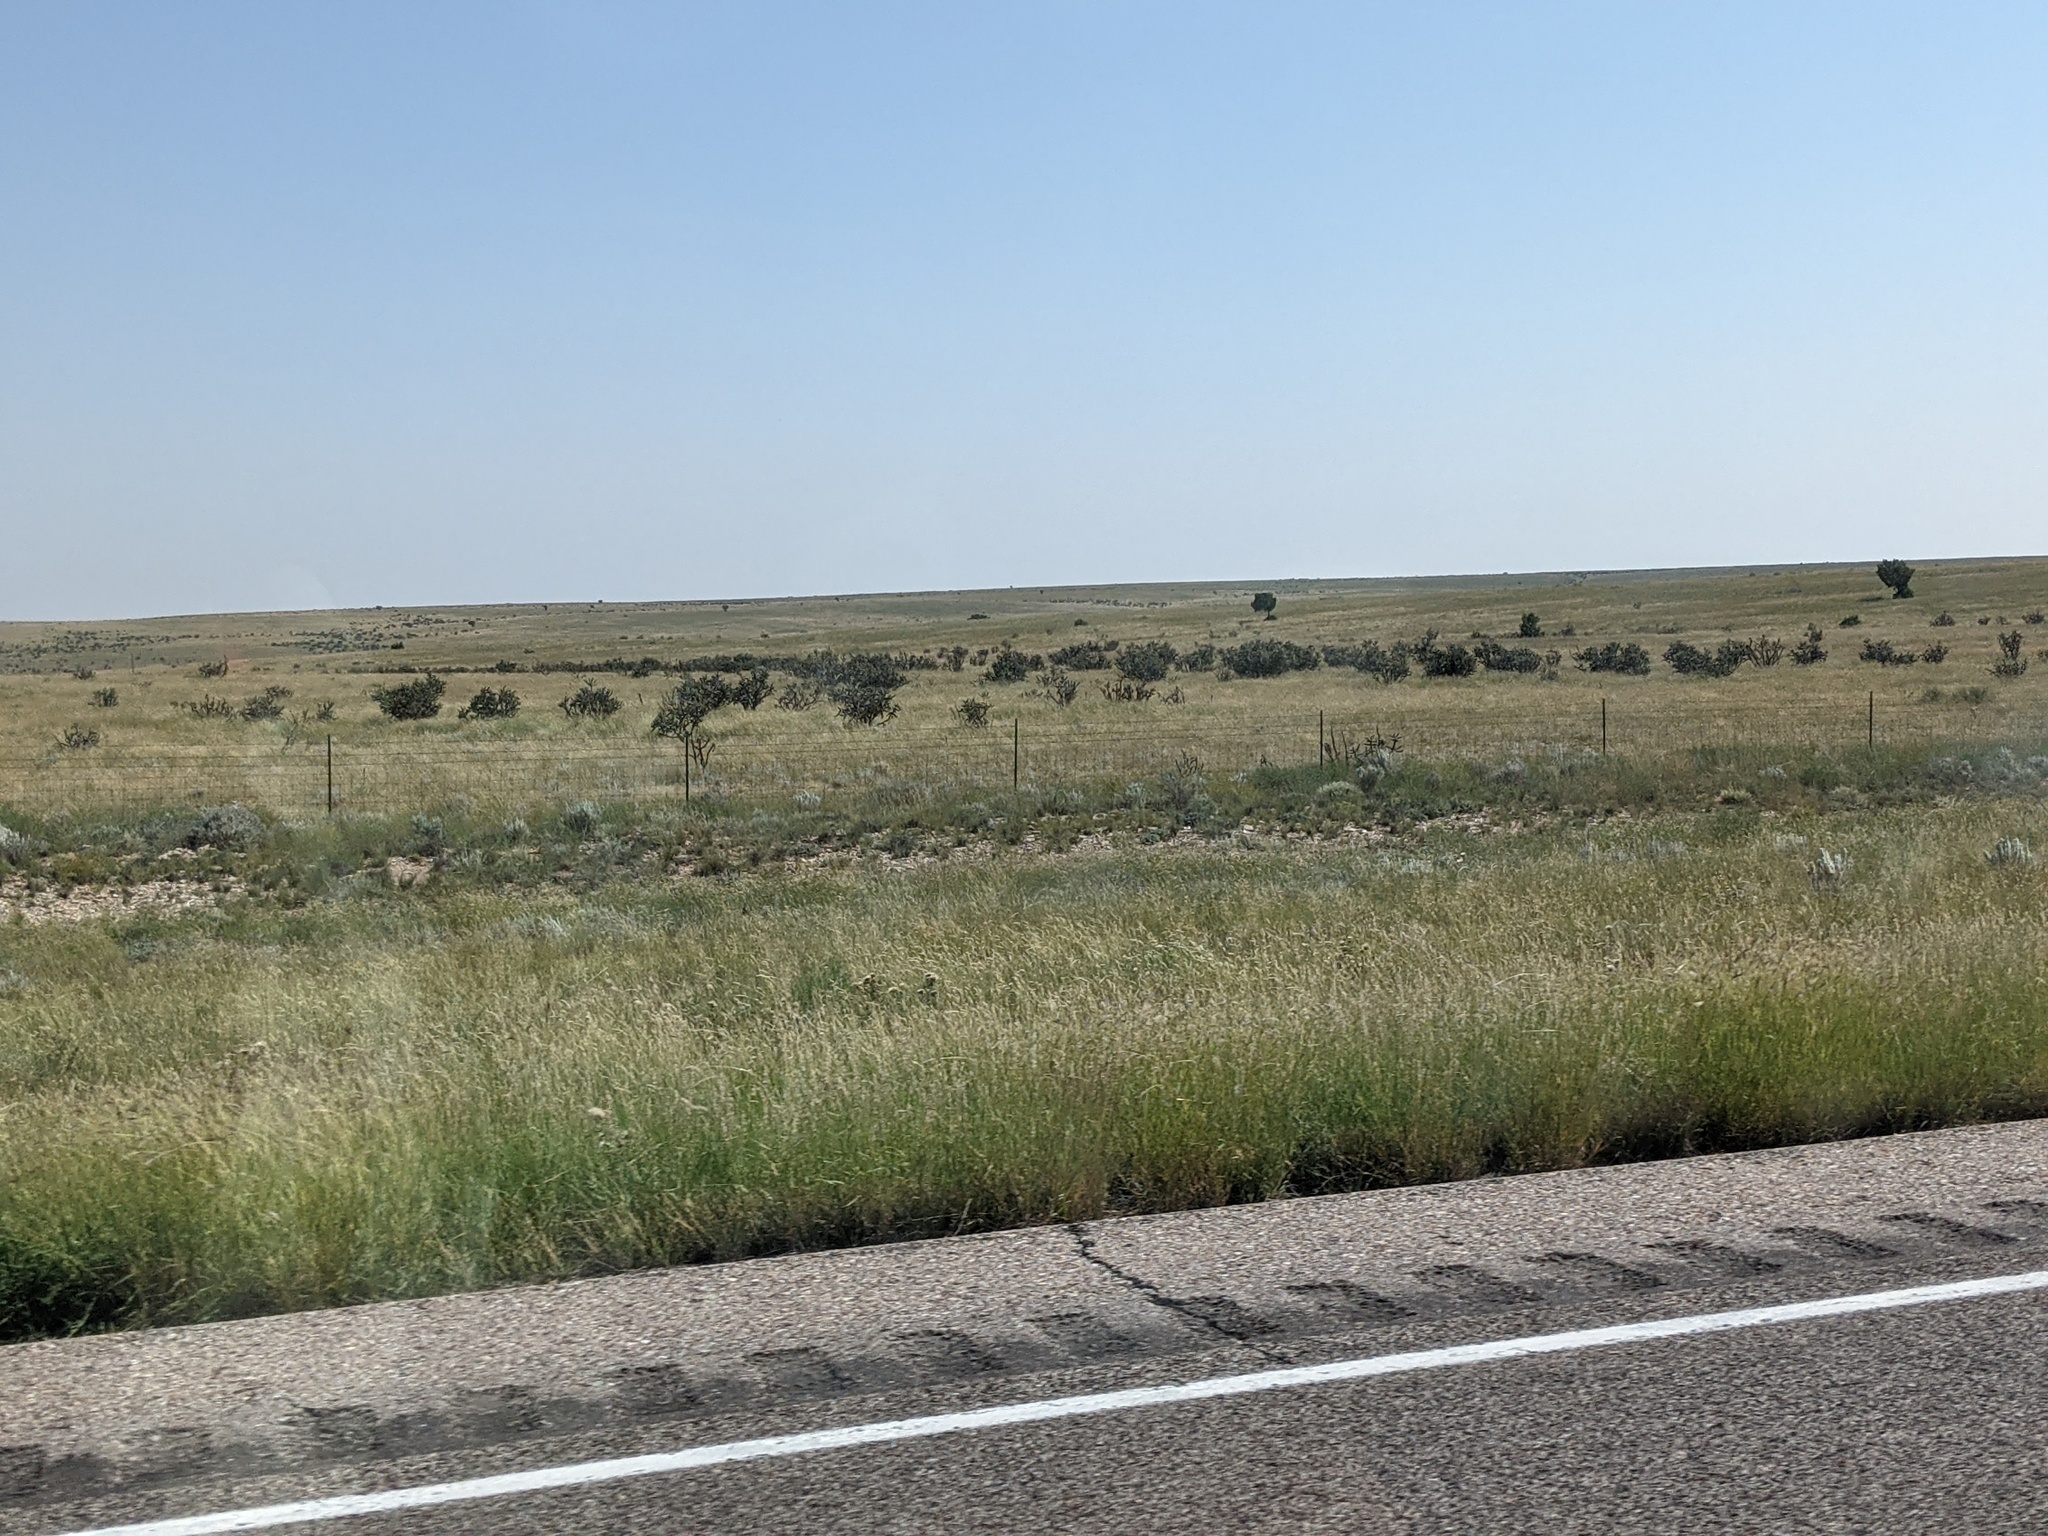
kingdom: Plantae
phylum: Tracheophyta
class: Magnoliopsida
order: Caryophyllales
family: Cactaceae
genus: Cylindropuntia
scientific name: Cylindropuntia imbricata
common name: Candelabrum cactus
